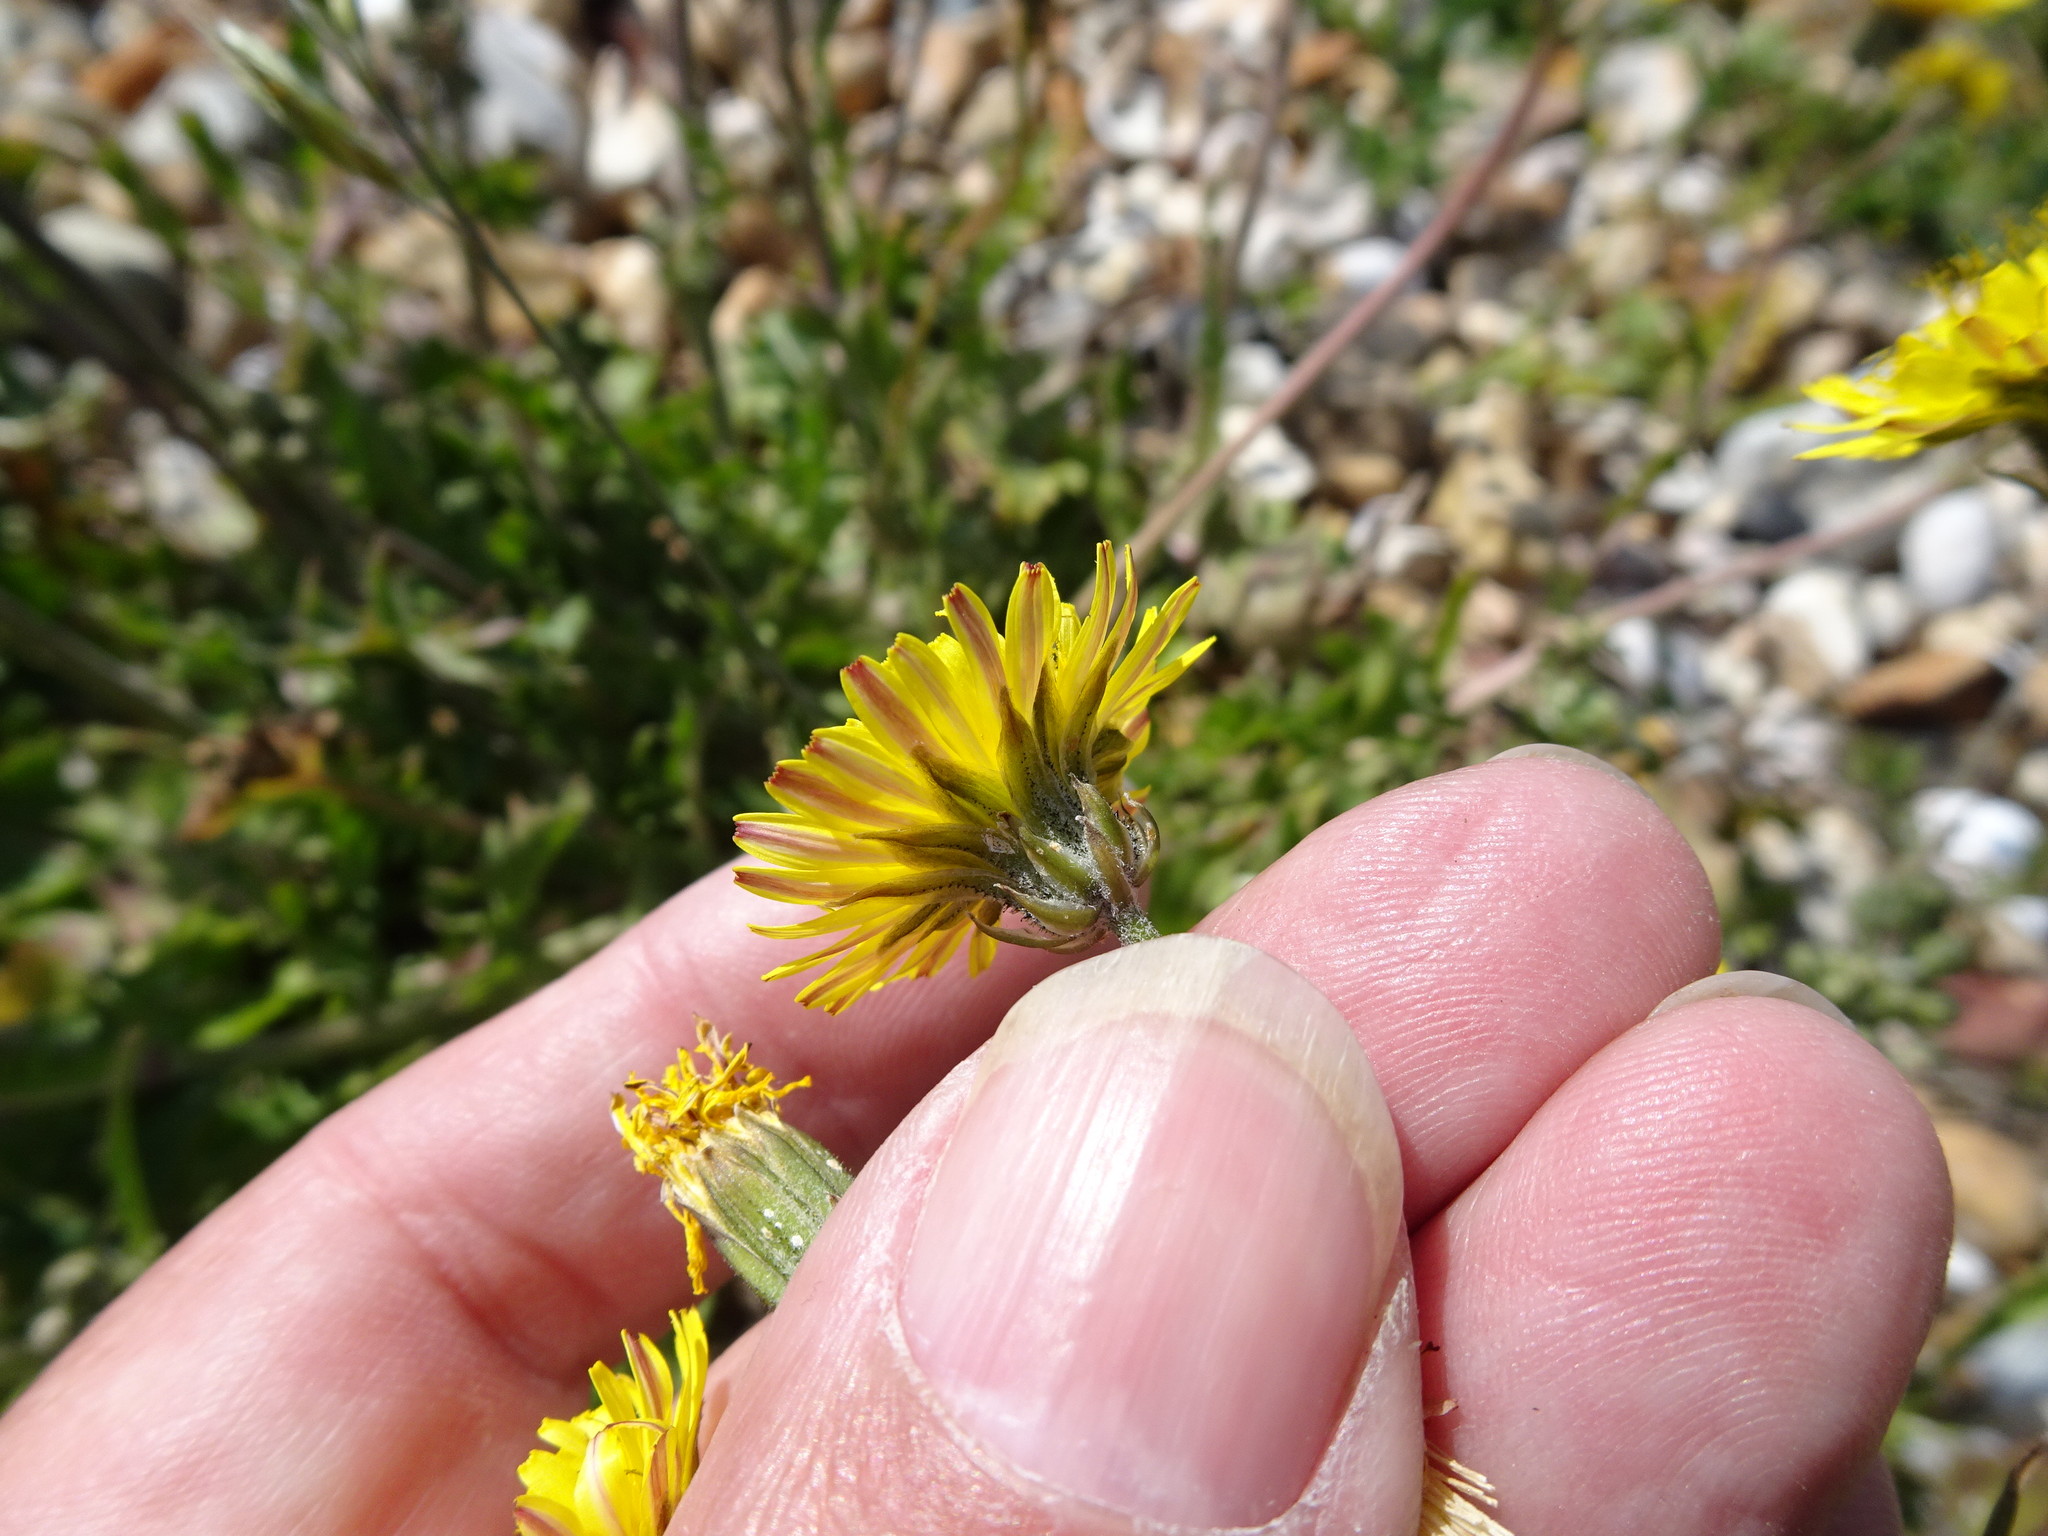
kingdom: Plantae
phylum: Tracheophyta
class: Magnoliopsida
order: Asterales
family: Asteraceae
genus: Crepis
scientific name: Crepis vesicaria
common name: Beaked hawksbeard
